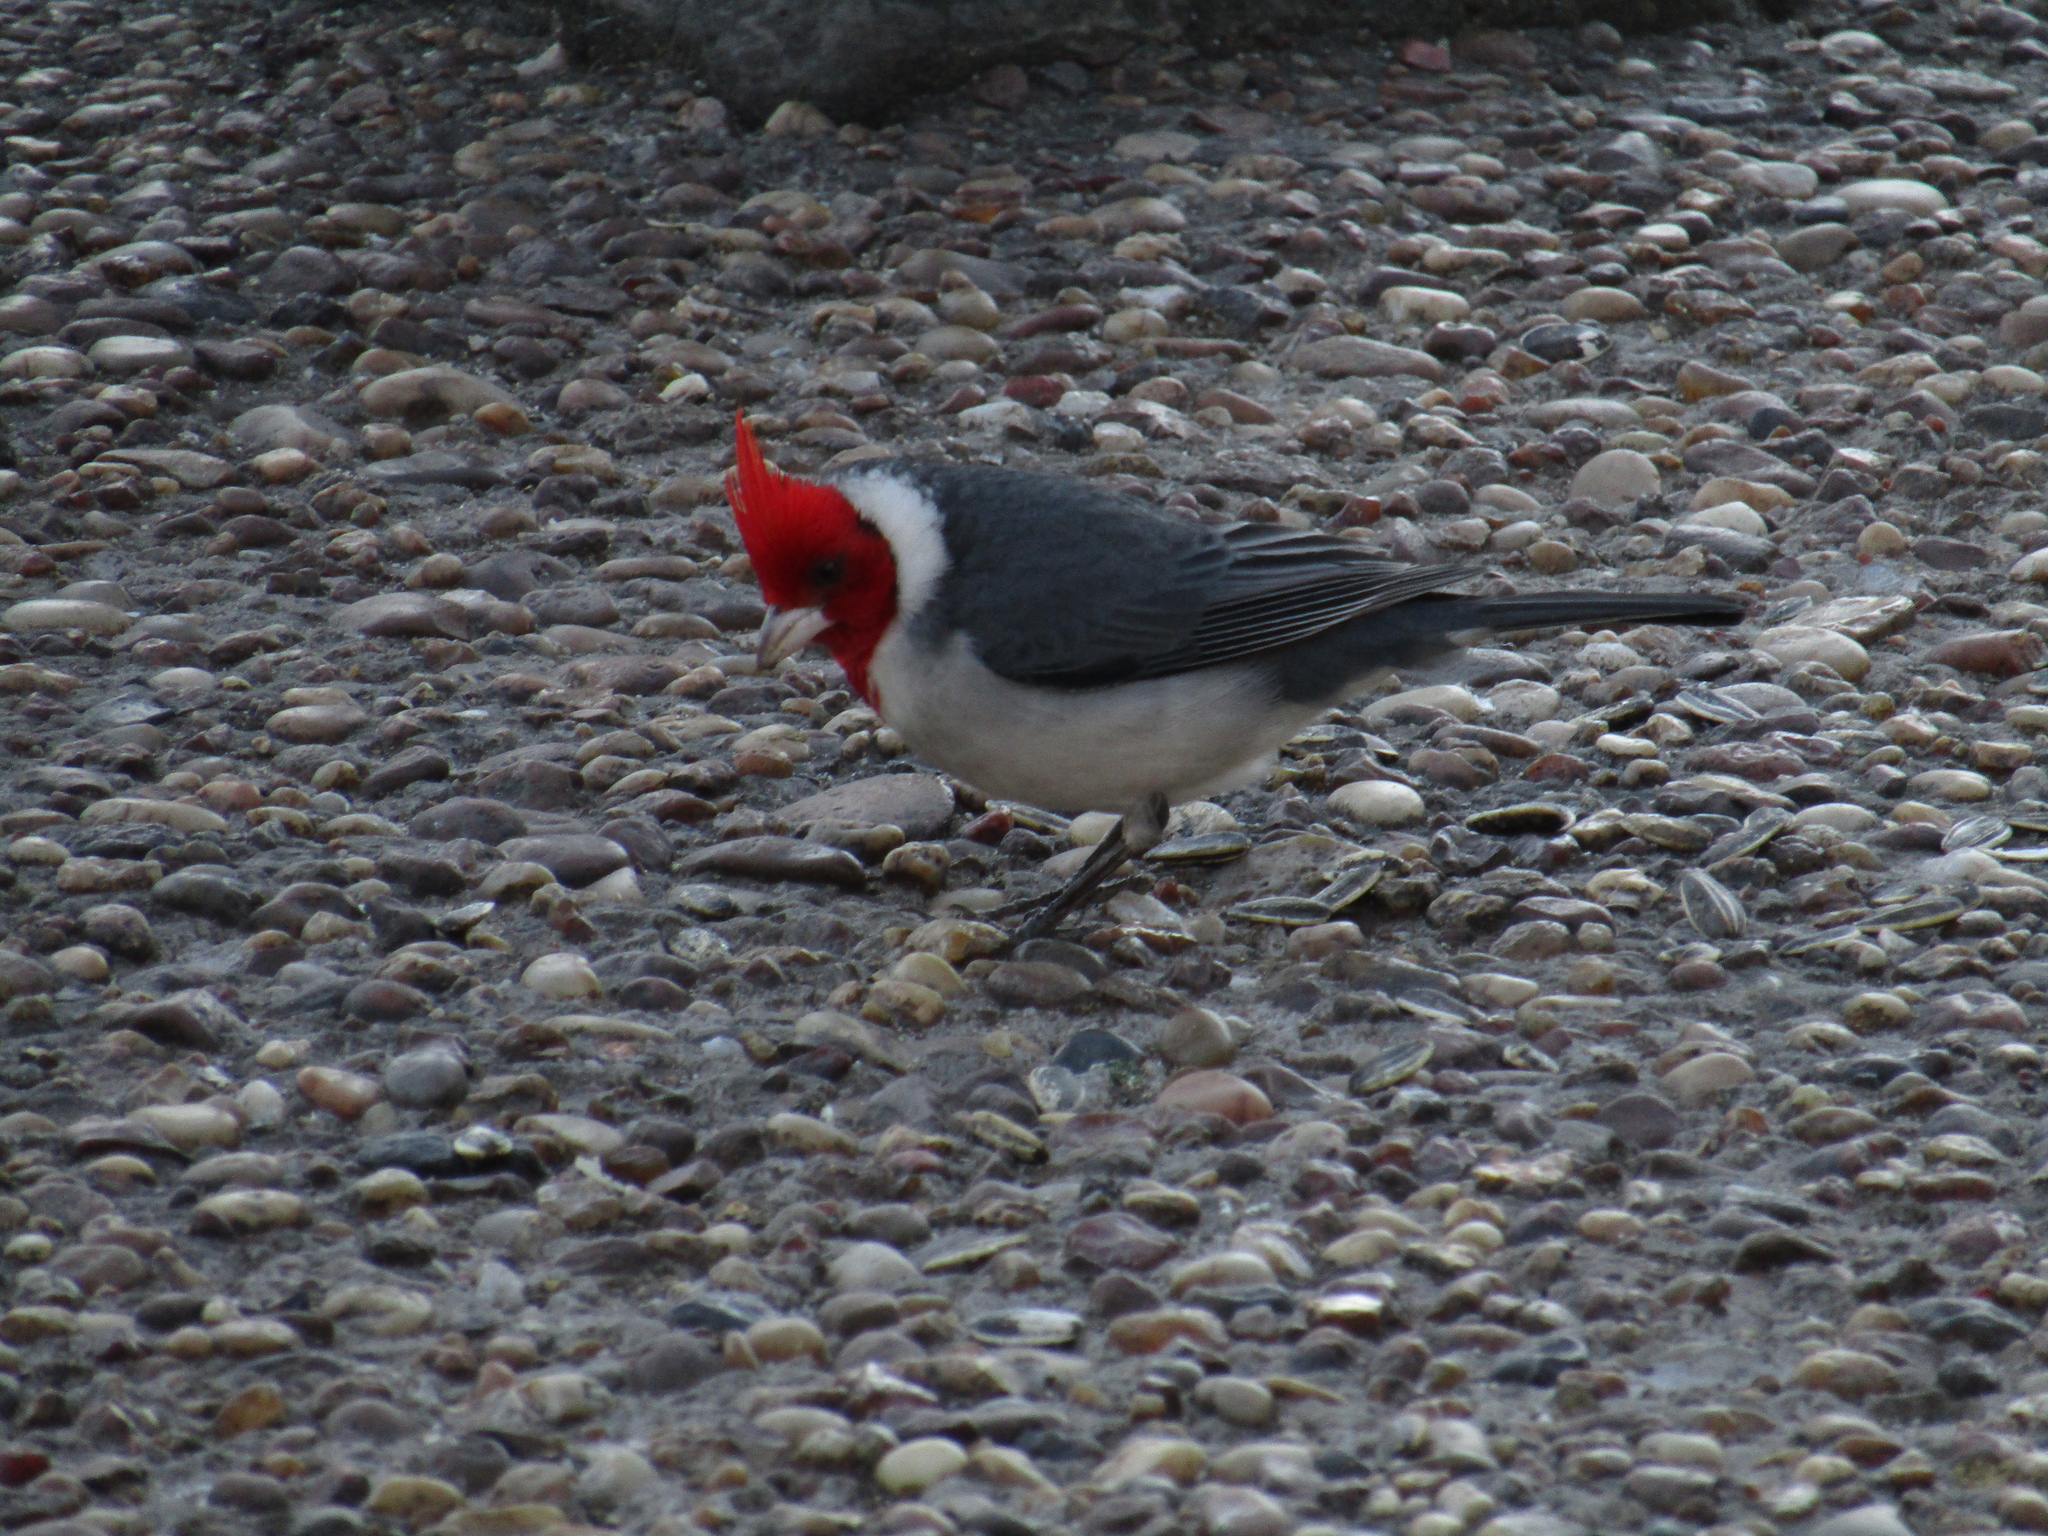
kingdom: Animalia
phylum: Chordata
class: Aves
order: Passeriformes
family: Thraupidae
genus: Paroaria
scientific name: Paroaria coronata
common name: Red-crested cardinal
